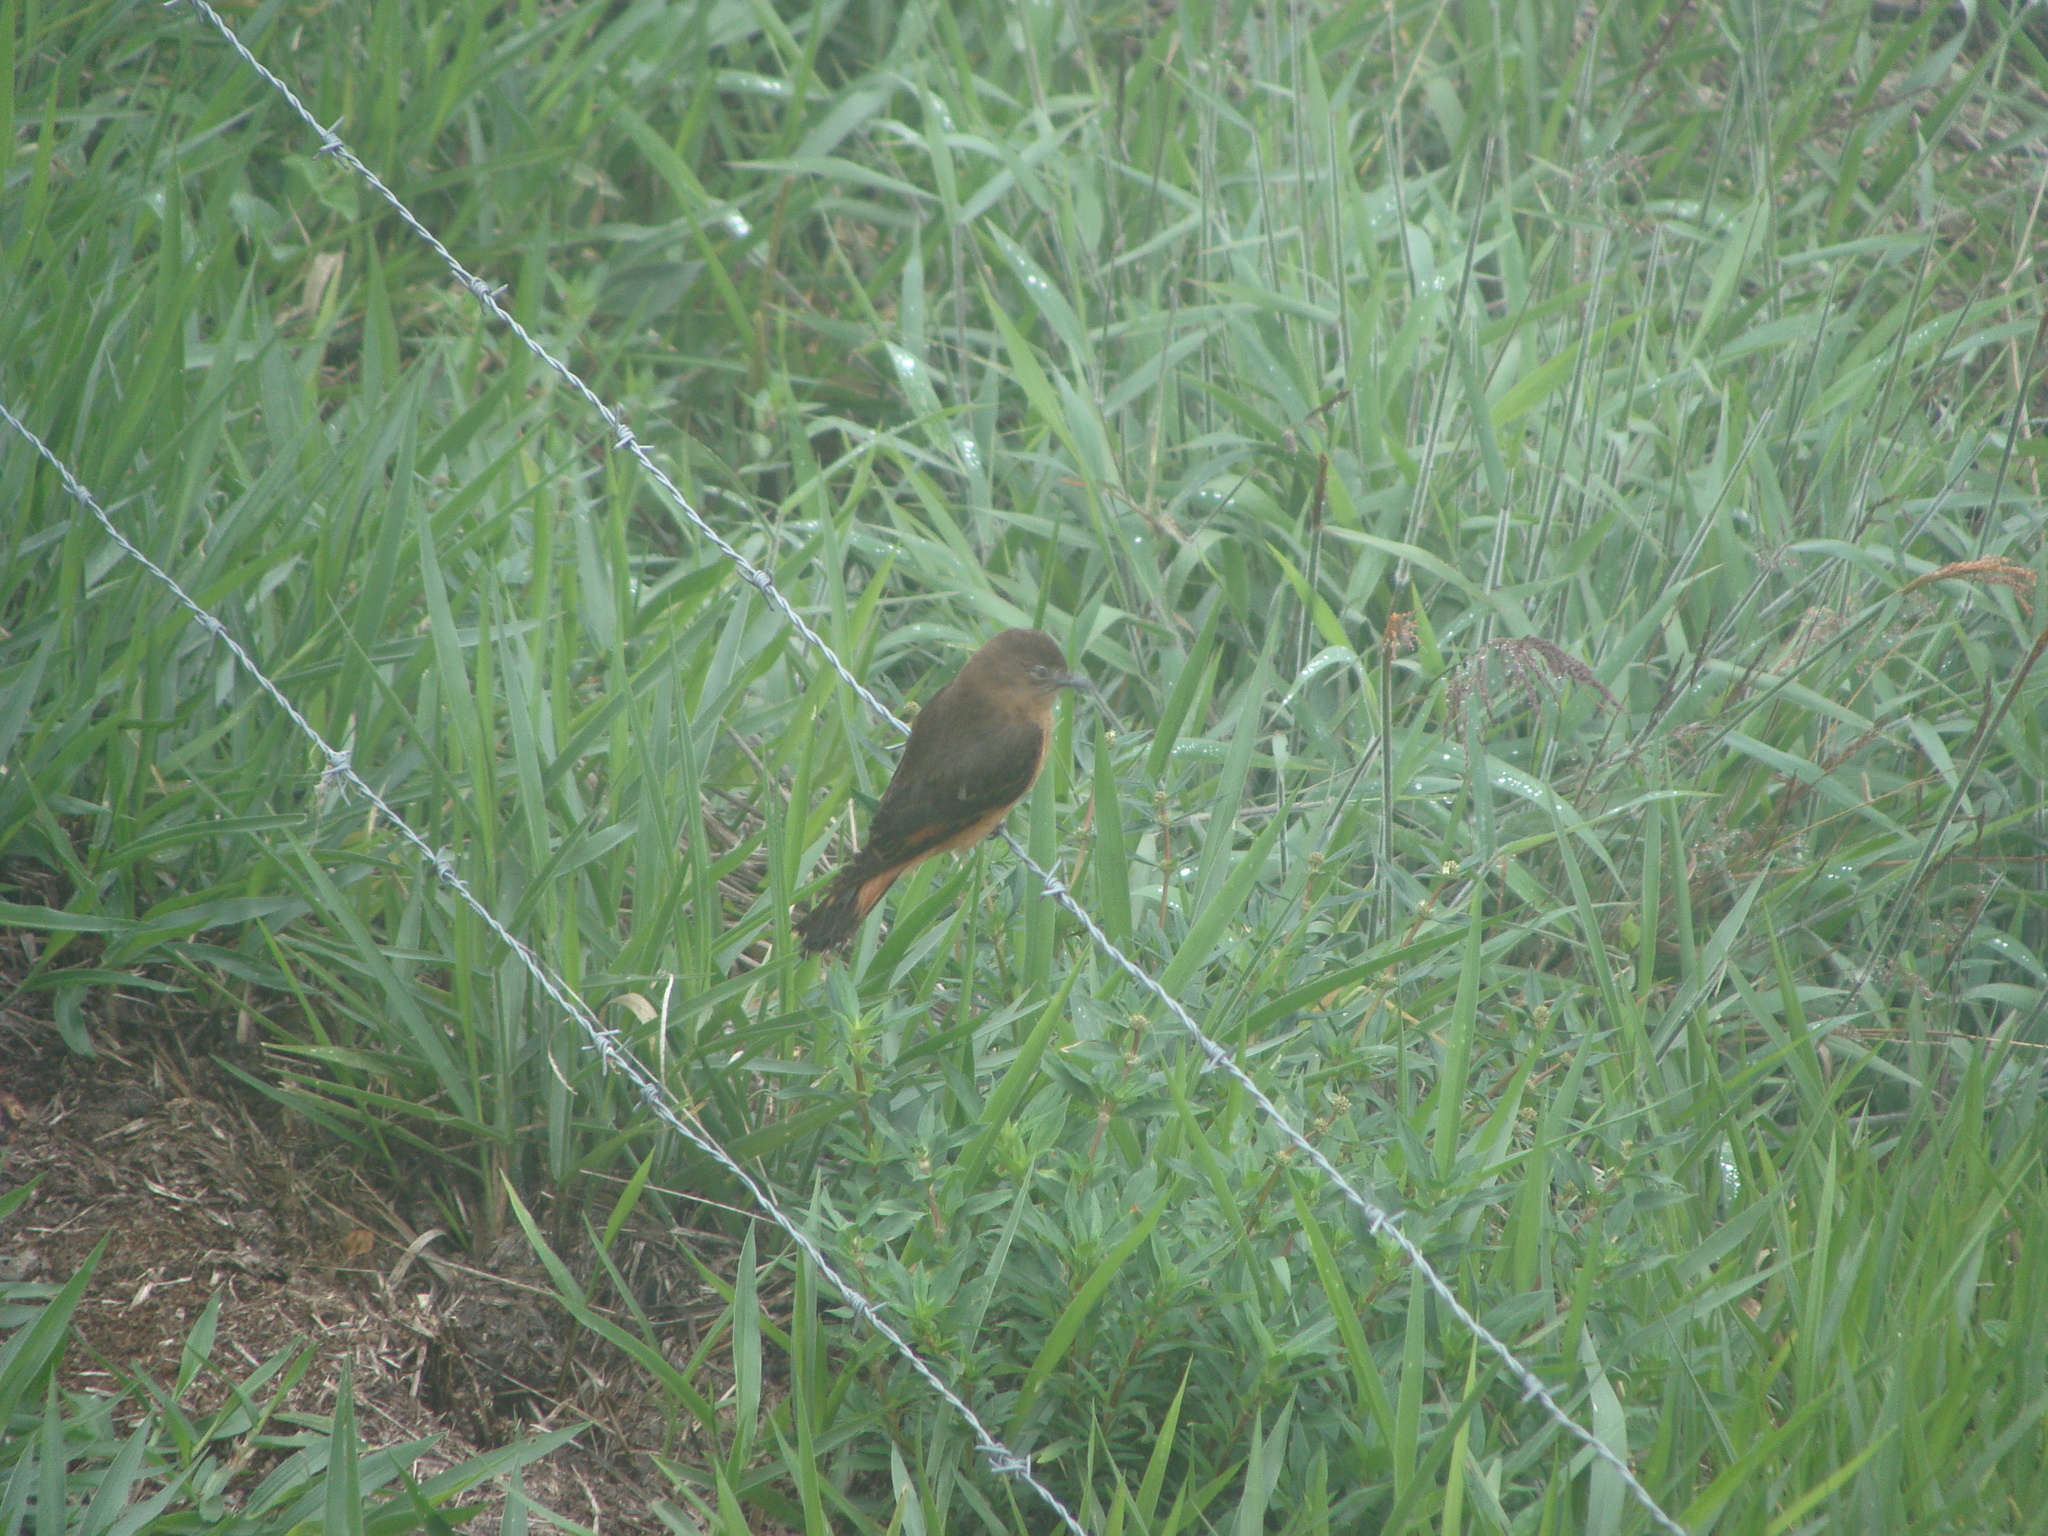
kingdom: Animalia
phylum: Chordata
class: Aves
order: Passeriformes
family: Tyrannidae
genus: Hirundinea
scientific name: Hirundinea ferruginea
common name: Cliff flycatcher
